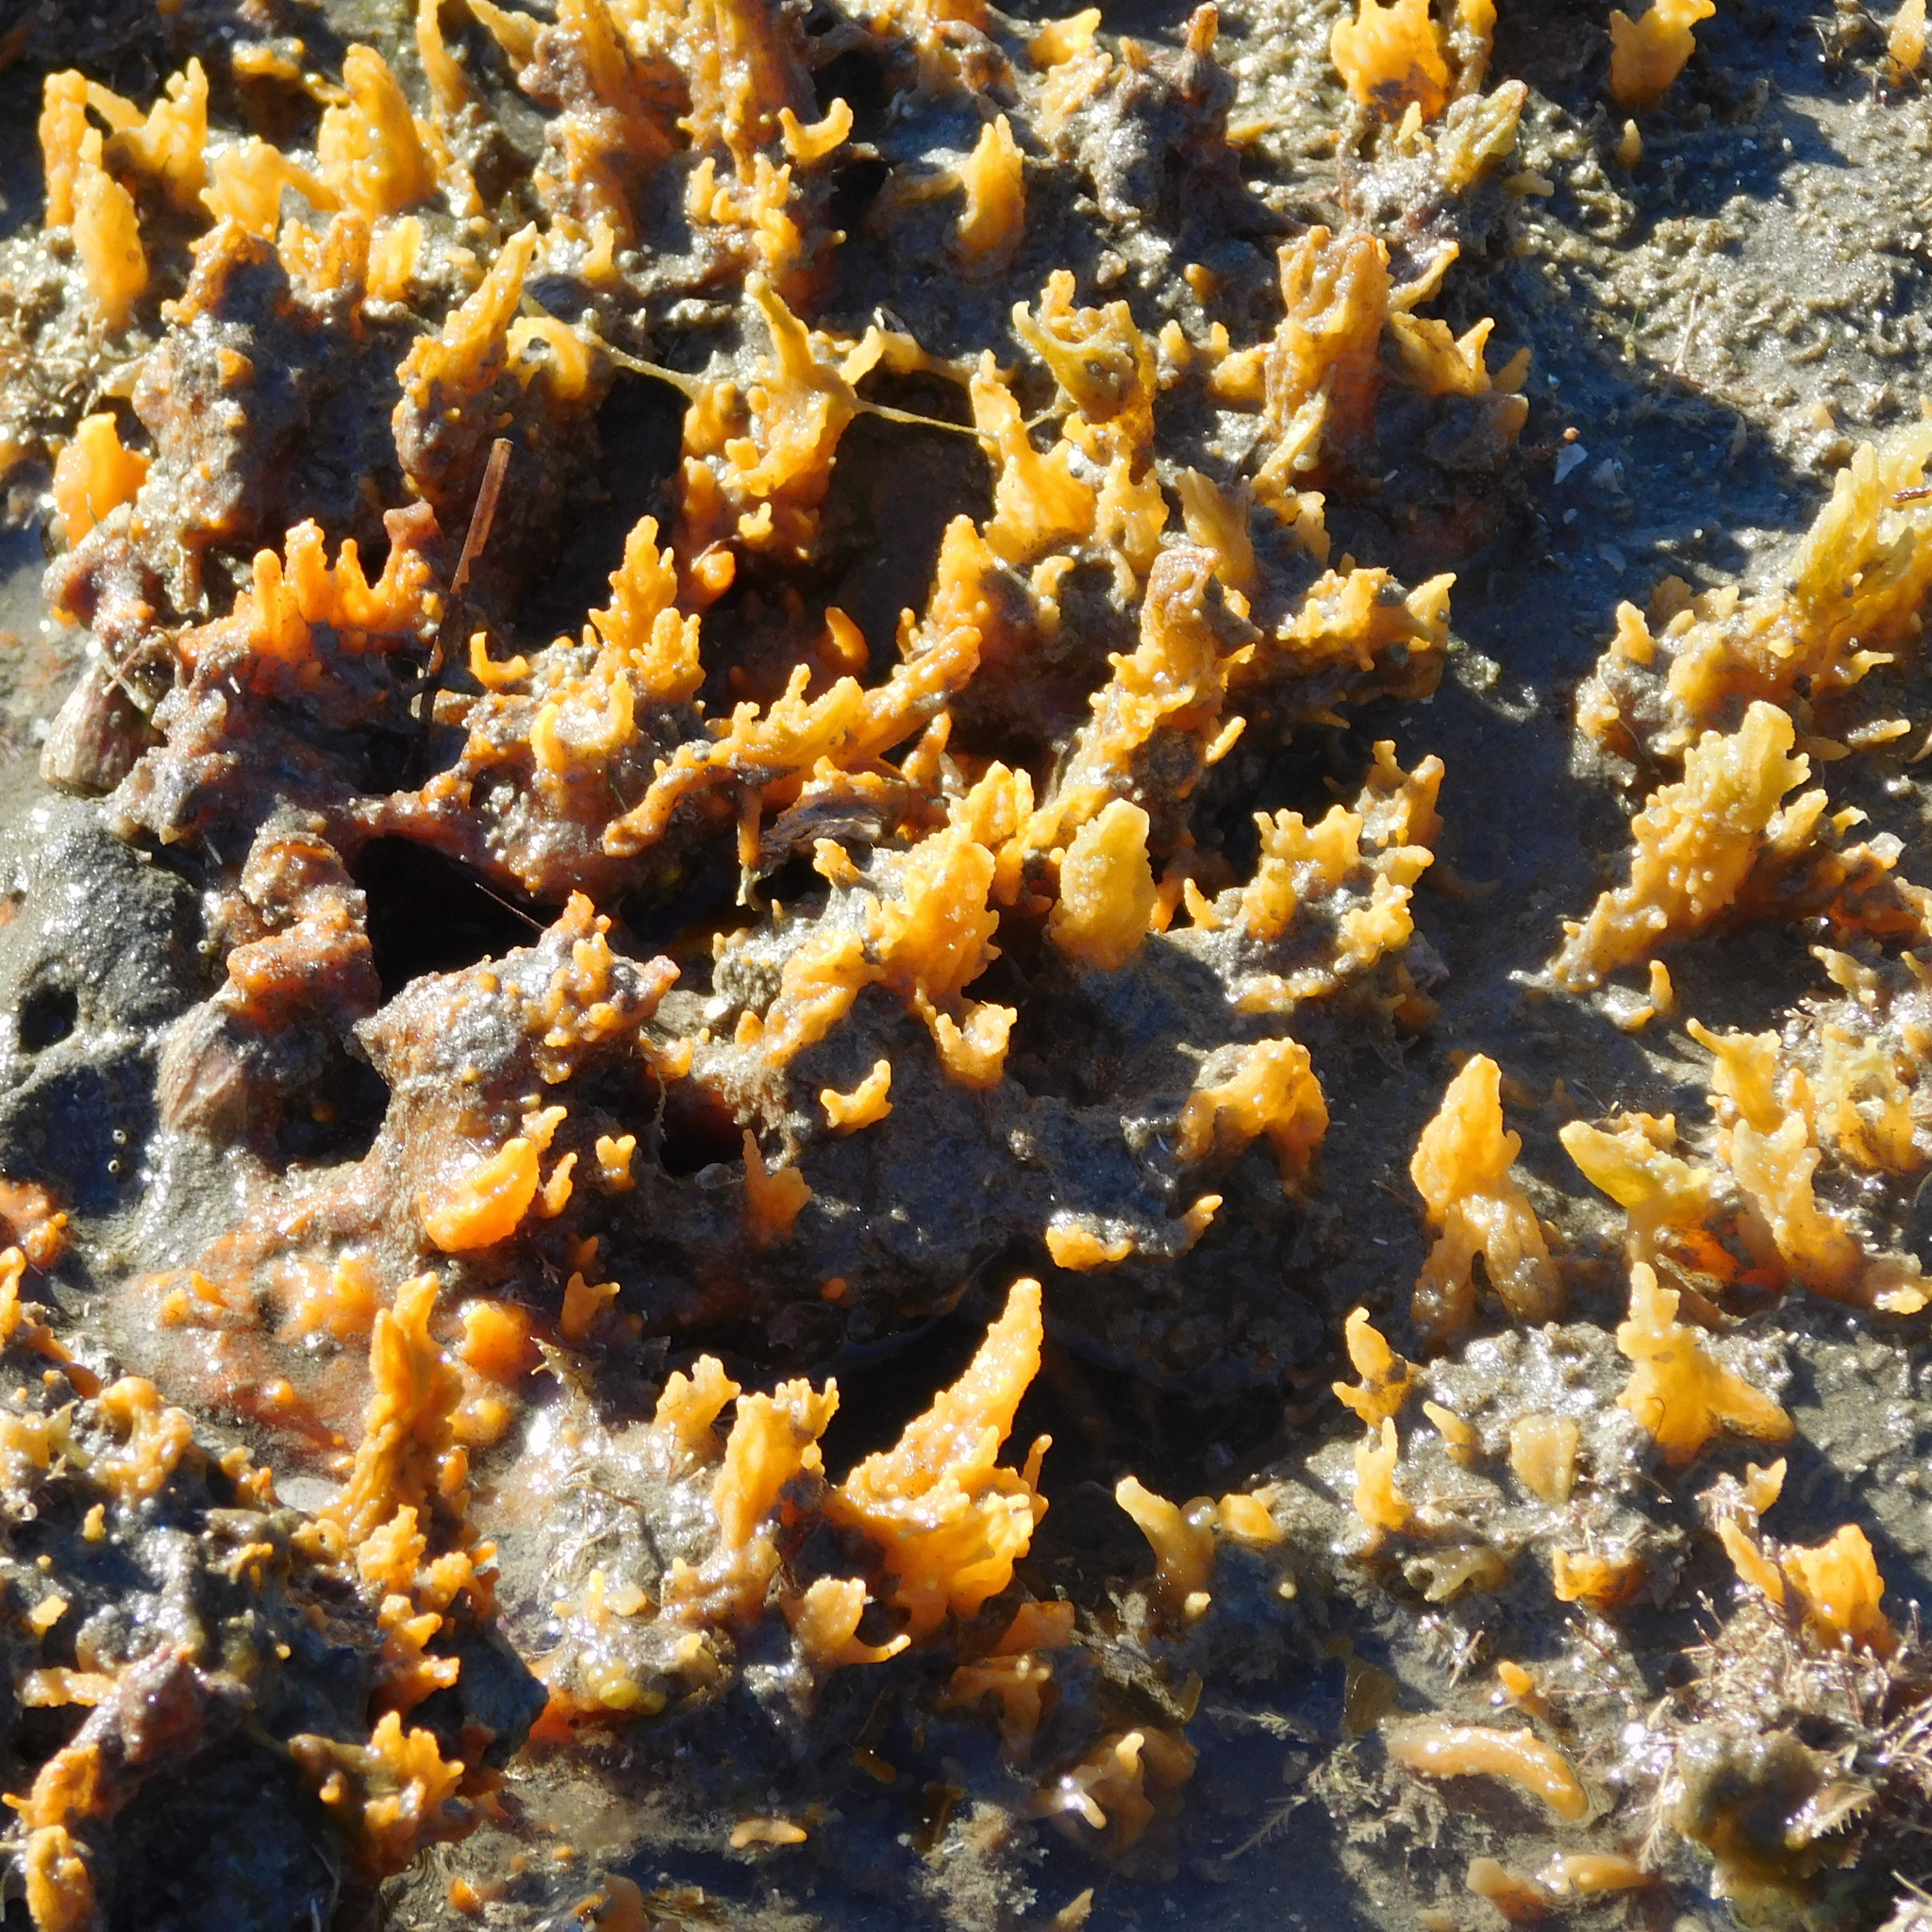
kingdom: Animalia
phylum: Porifera
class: Demospongiae
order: Suberitida
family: Halichondriidae
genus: Ciocalypta
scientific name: Ciocalypta polymastia
